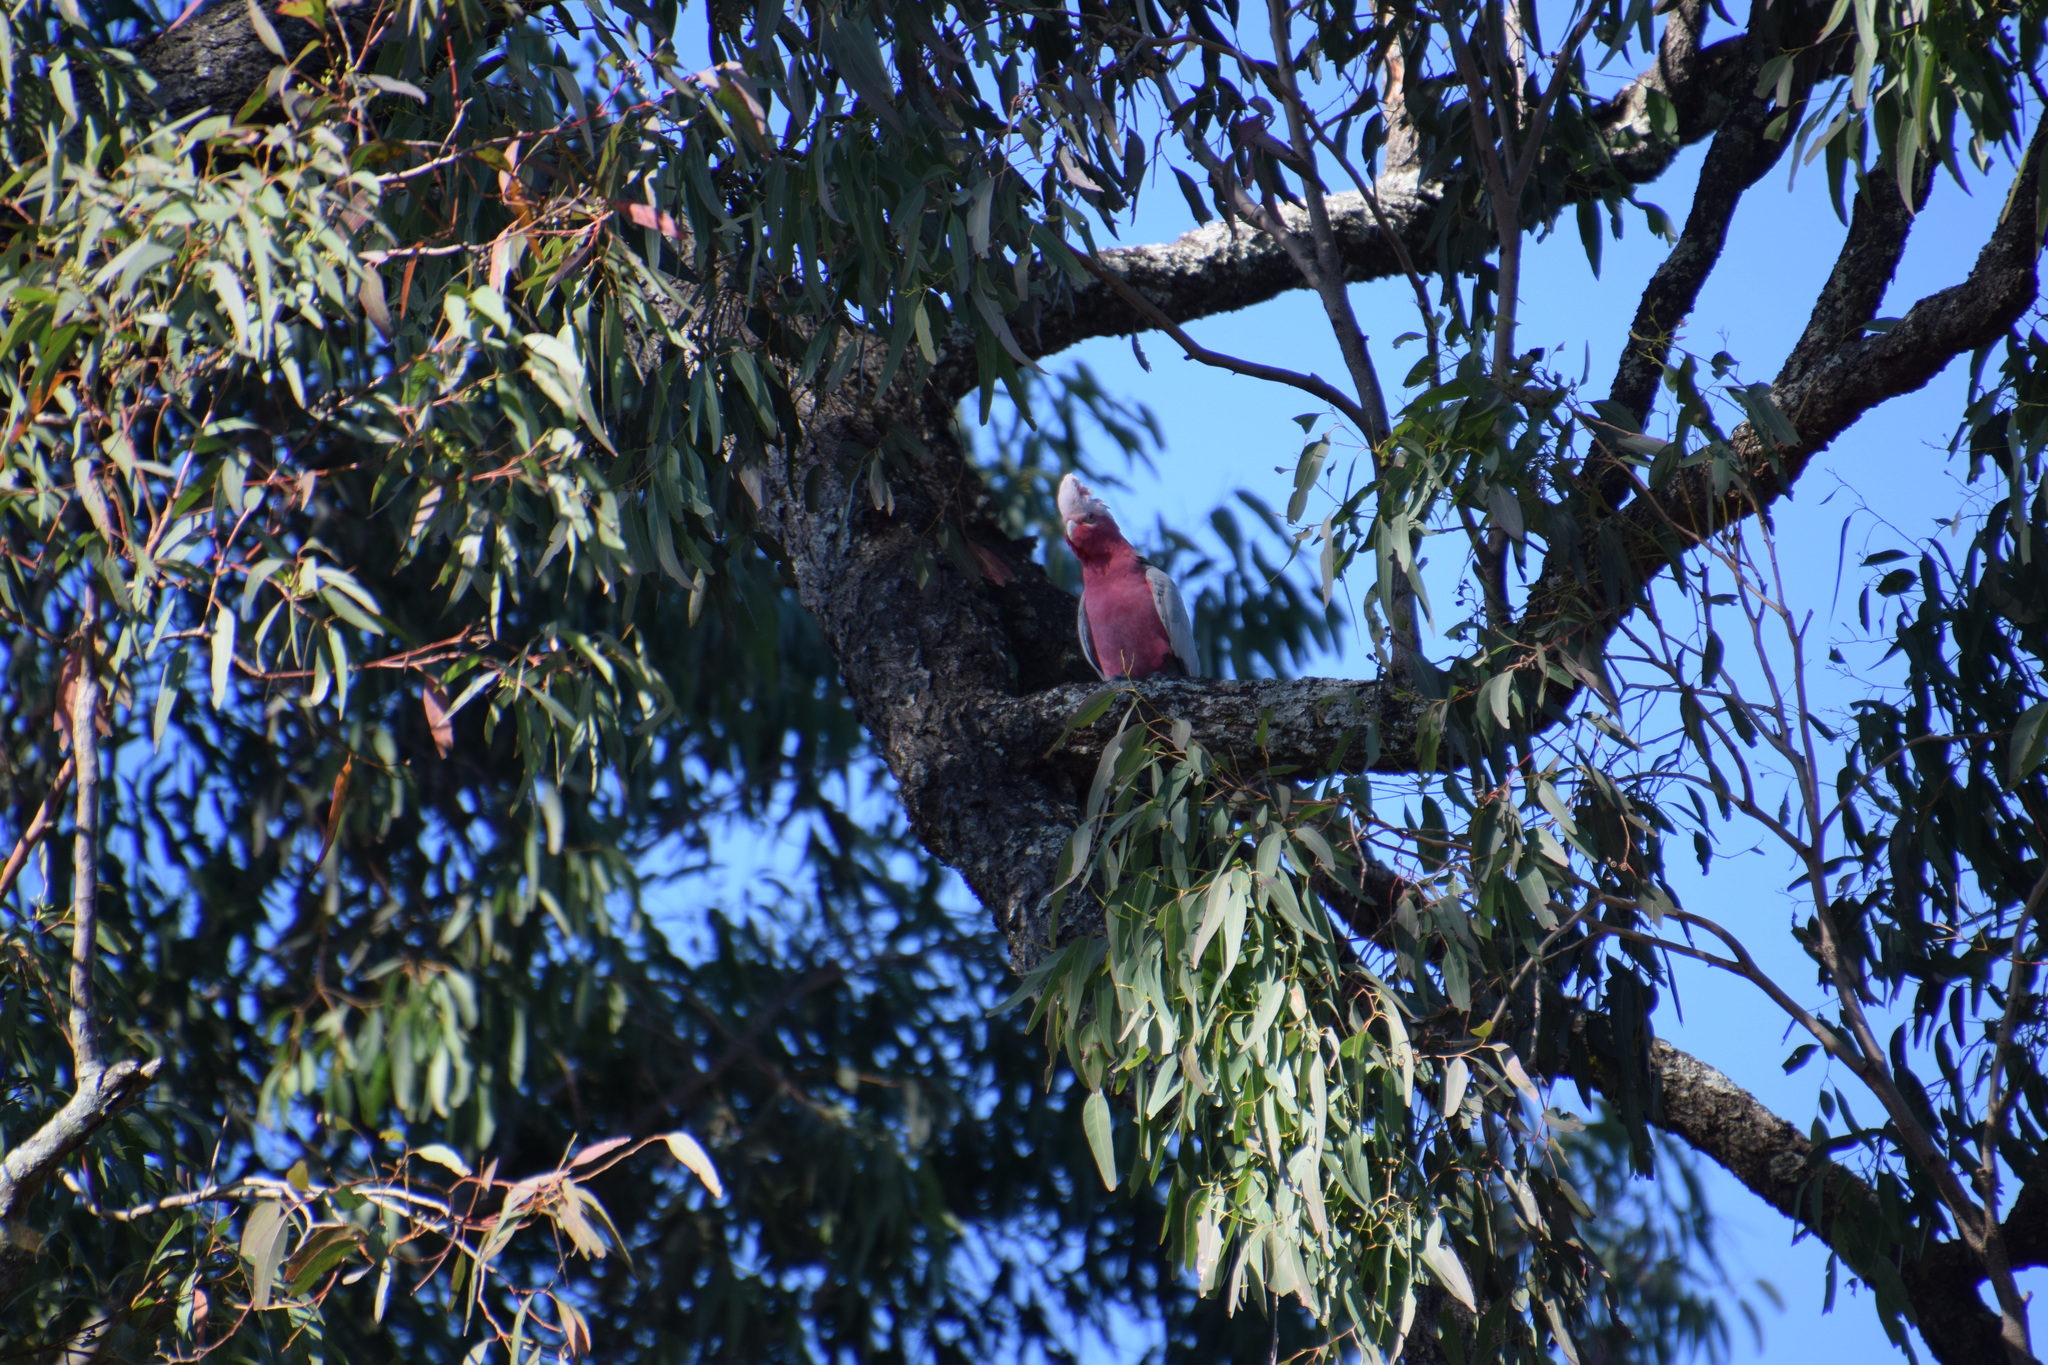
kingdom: Animalia
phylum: Chordata
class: Aves
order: Psittaciformes
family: Psittacidae
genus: Eolophus
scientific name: Eolophus roseicapilla
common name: Galah
